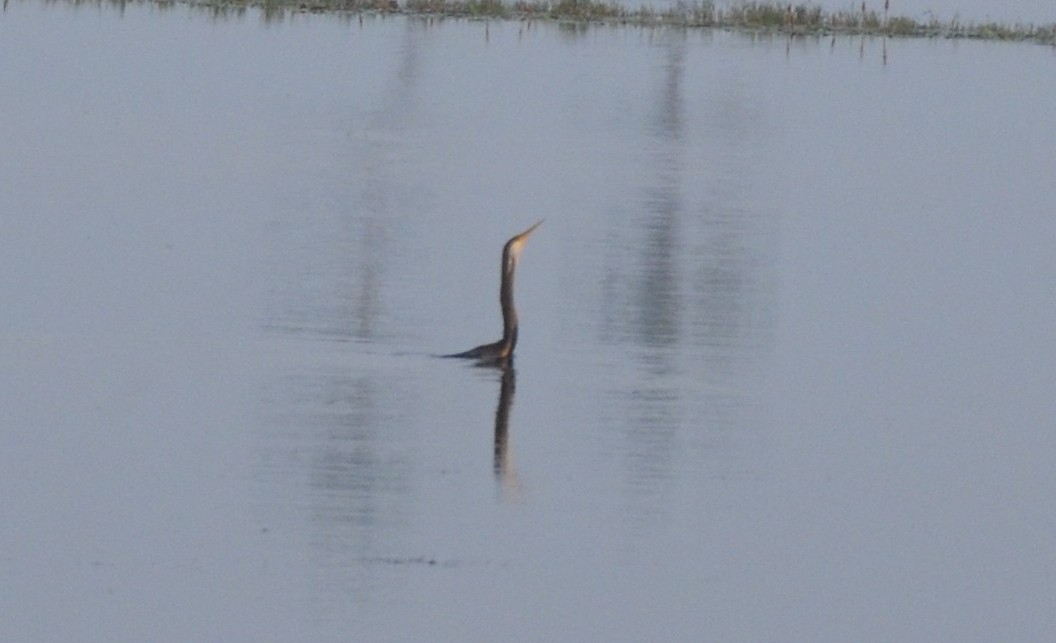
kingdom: Animalia
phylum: Chordata
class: Aves
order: Suliformes
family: Anhingidae
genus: Anhinga
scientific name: Anhinga melanogaster
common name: Oriental darter
